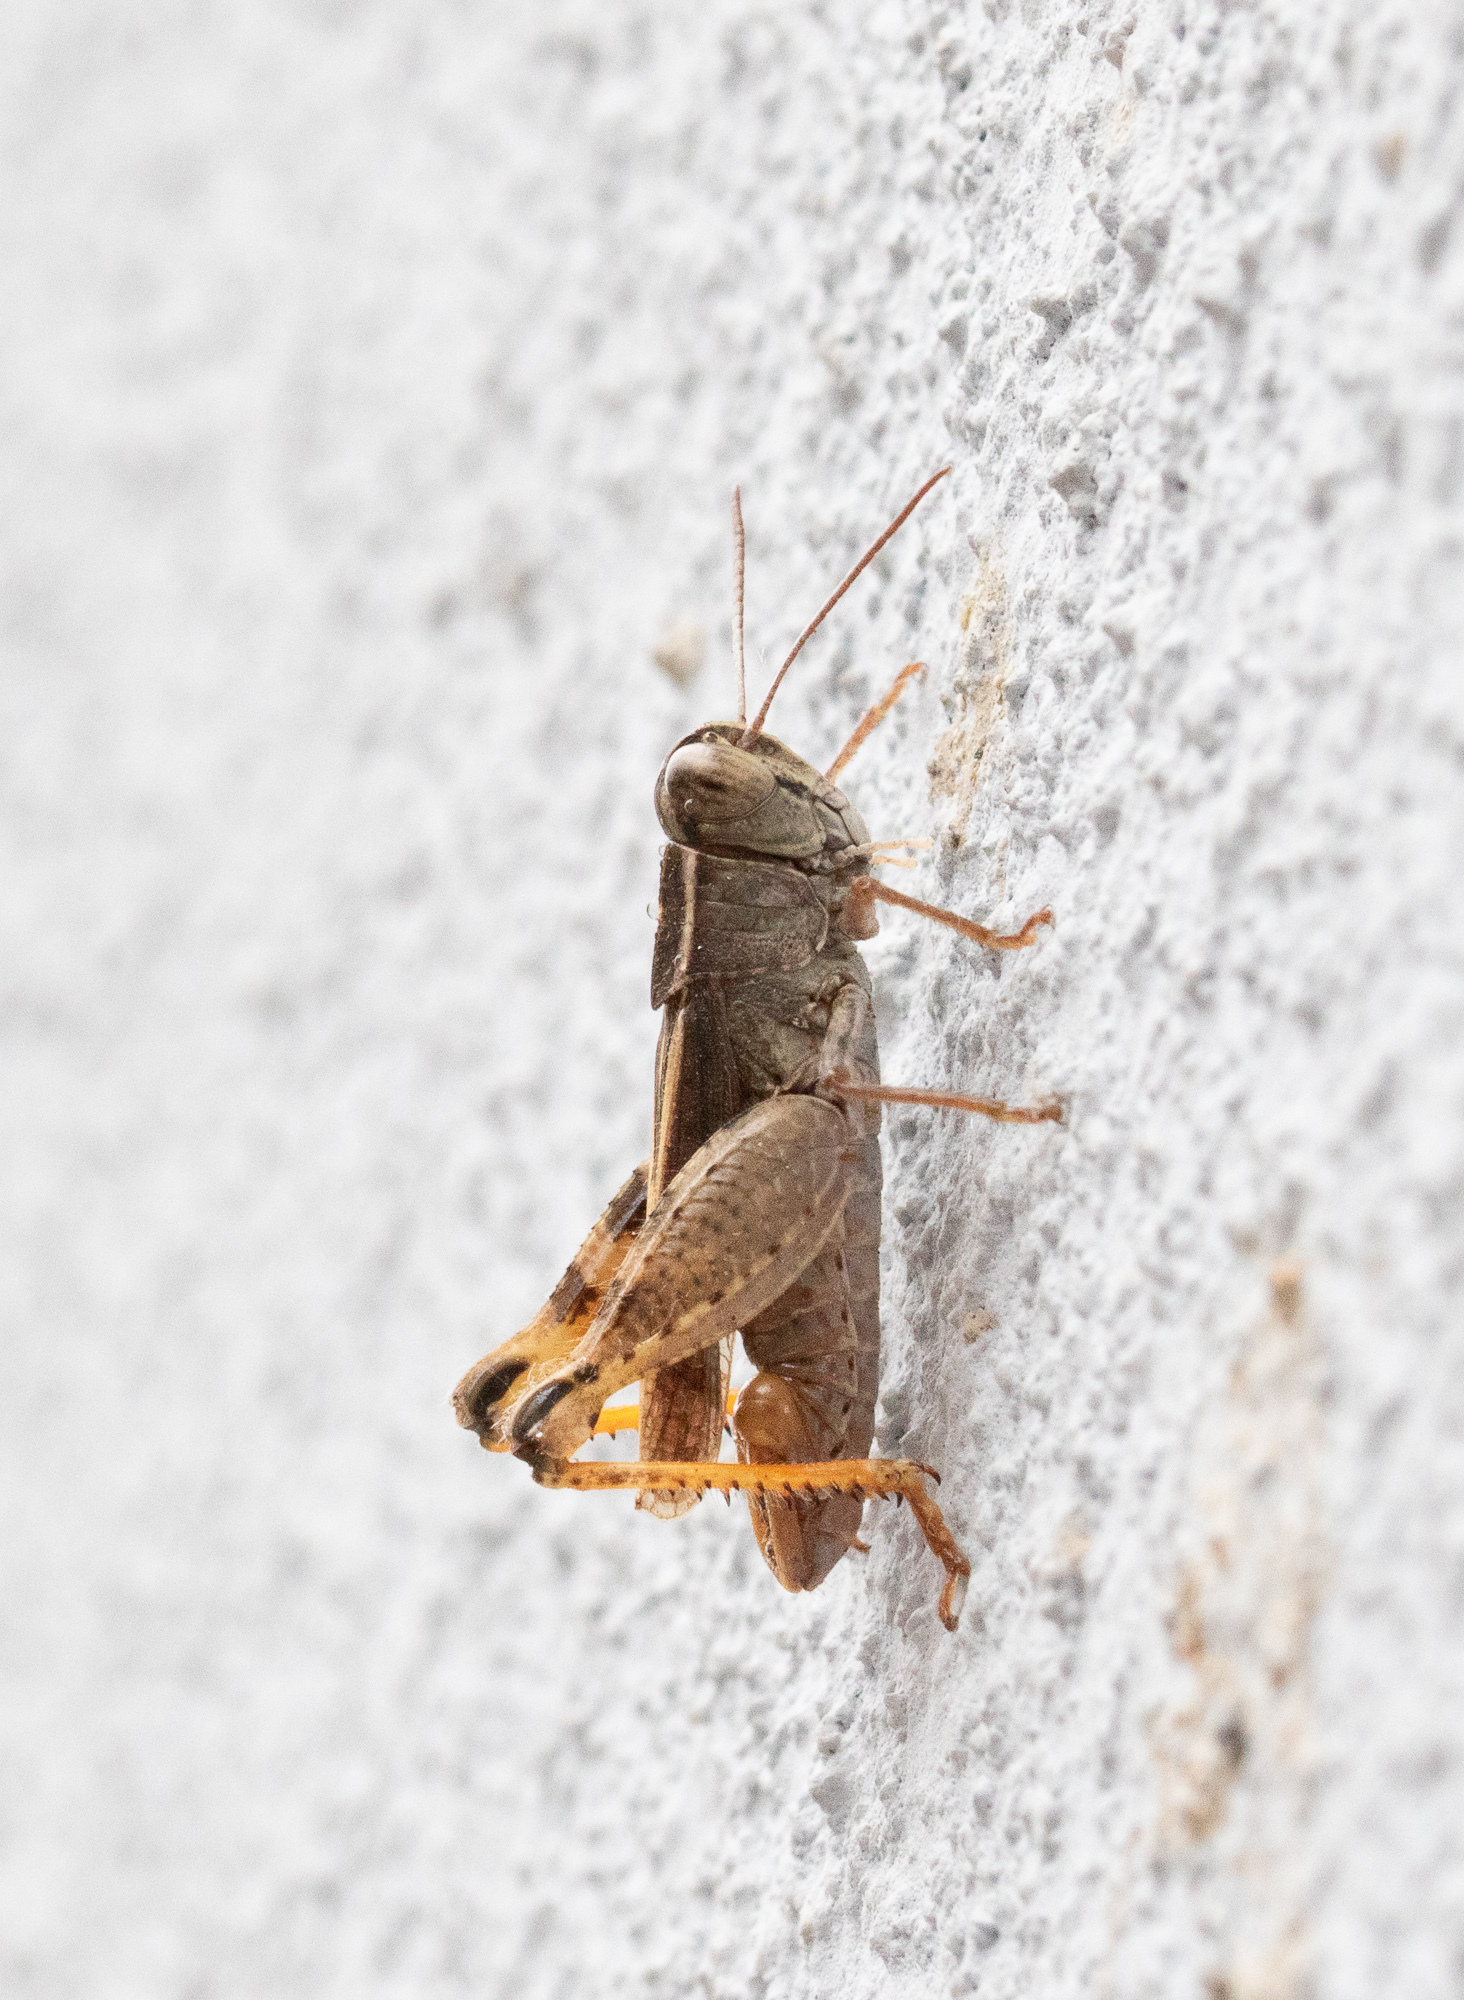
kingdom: Animalia
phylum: Arthropoda
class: Insecta
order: Orthoptera
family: Acrididae
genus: Calliptamus
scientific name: Calliptamus tenuicercis
